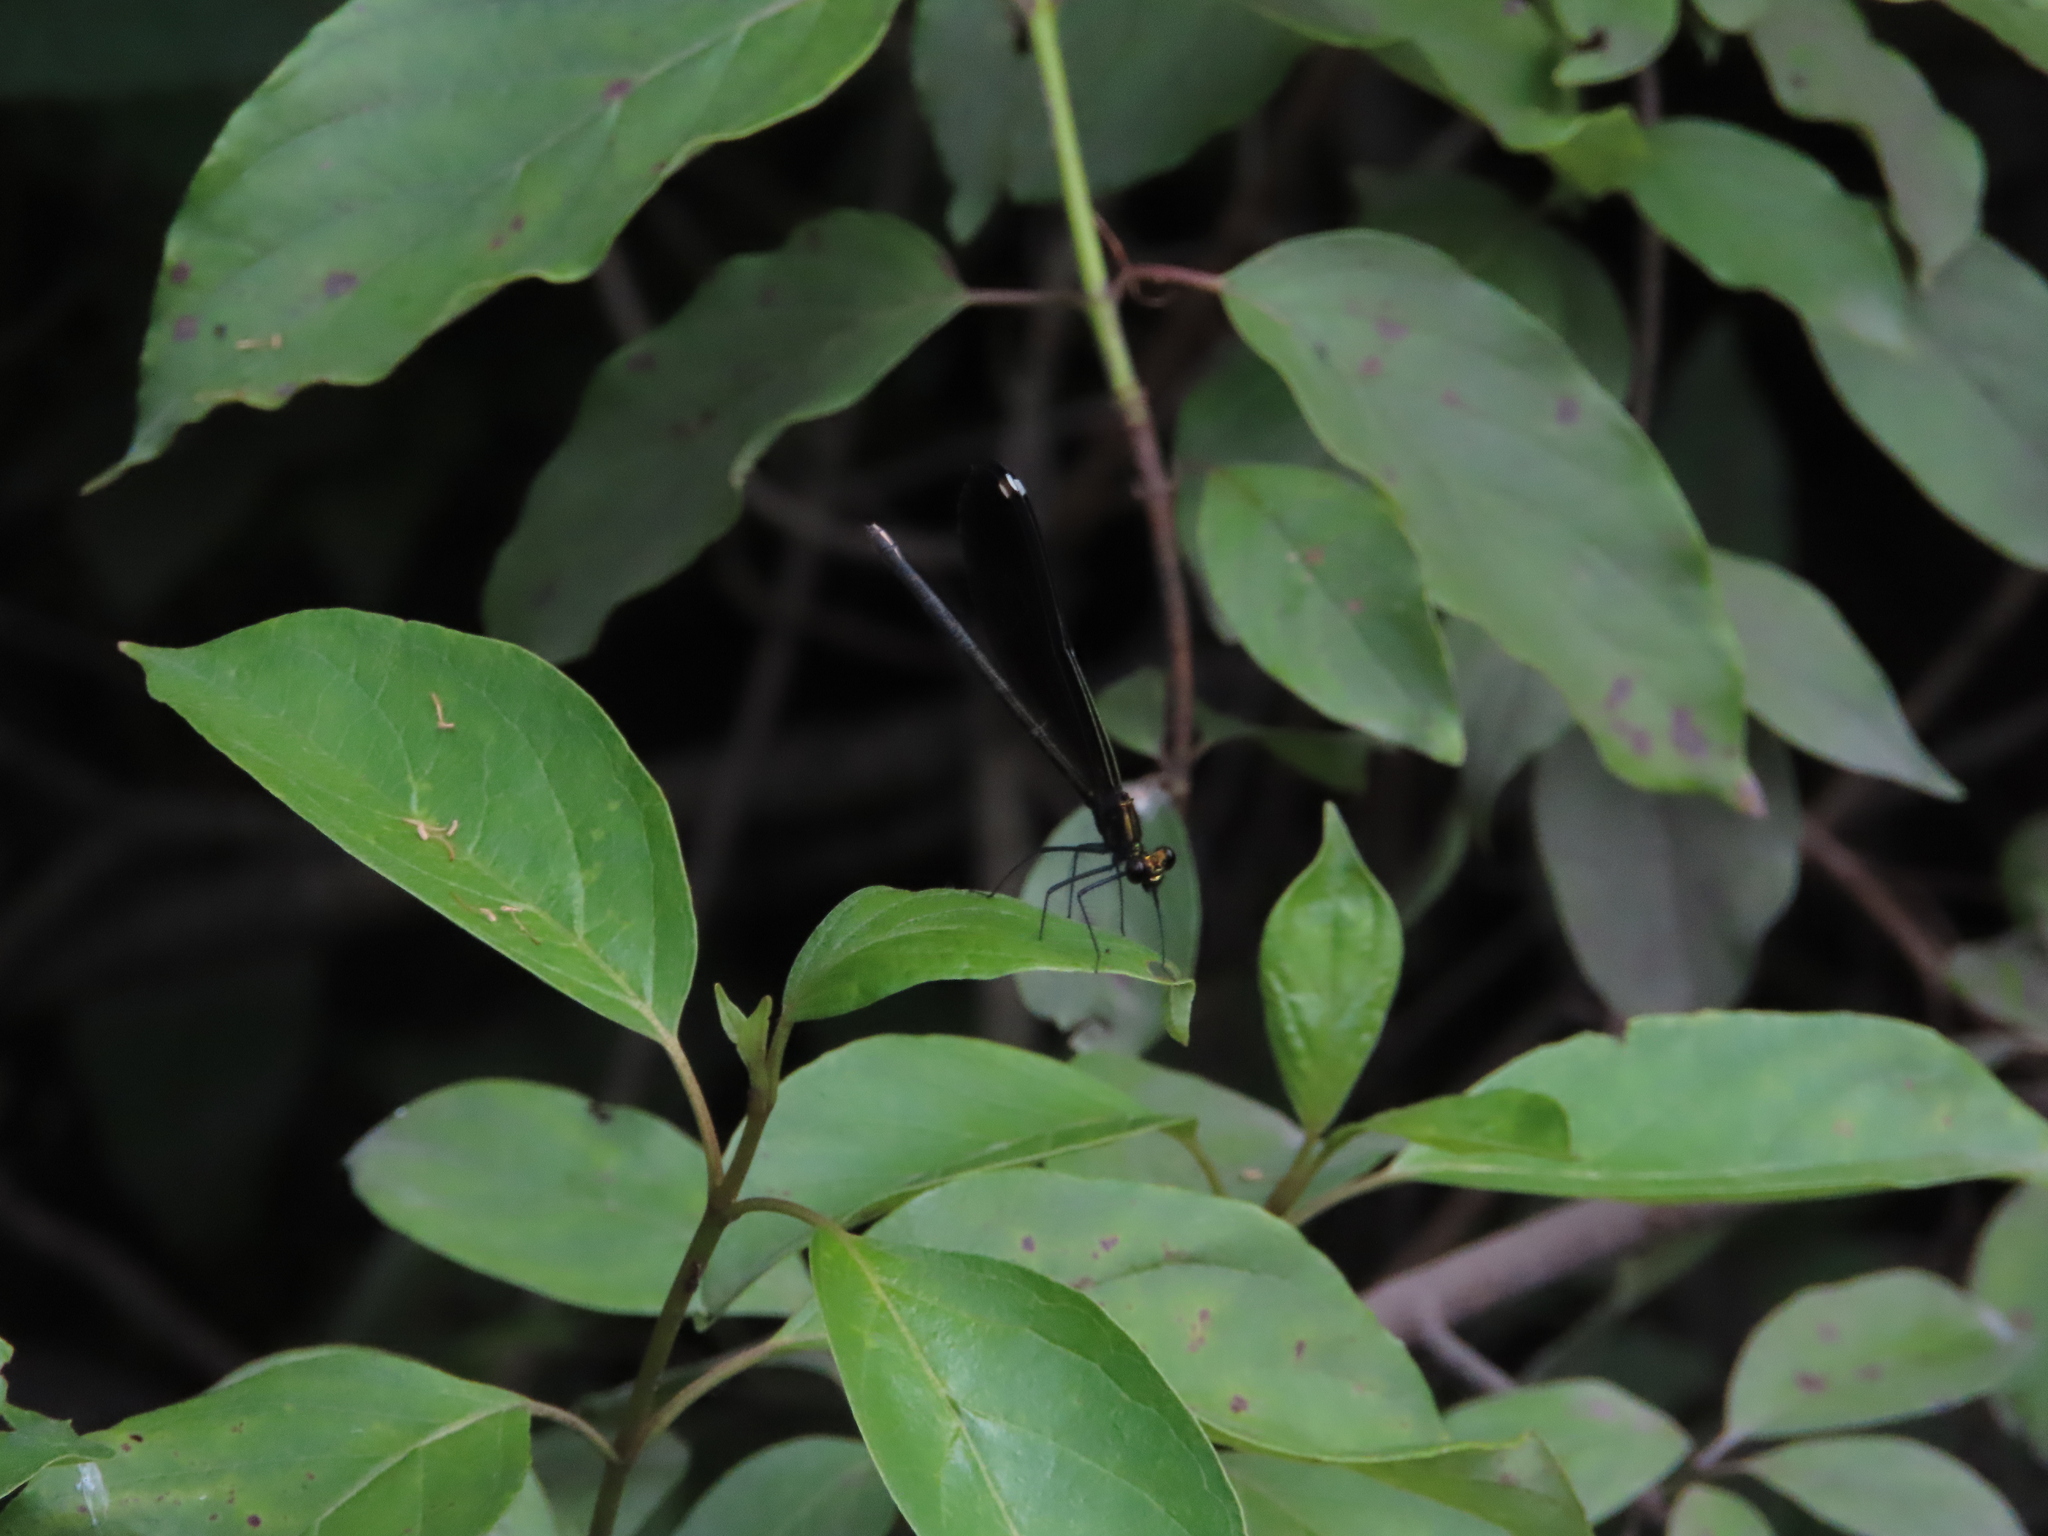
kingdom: Animalia
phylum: Arthropoda
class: Insecta
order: Odonata
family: Calopterygidae
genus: Calopteryx
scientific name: Calopteryx maculata
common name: Ebony jewelwing
